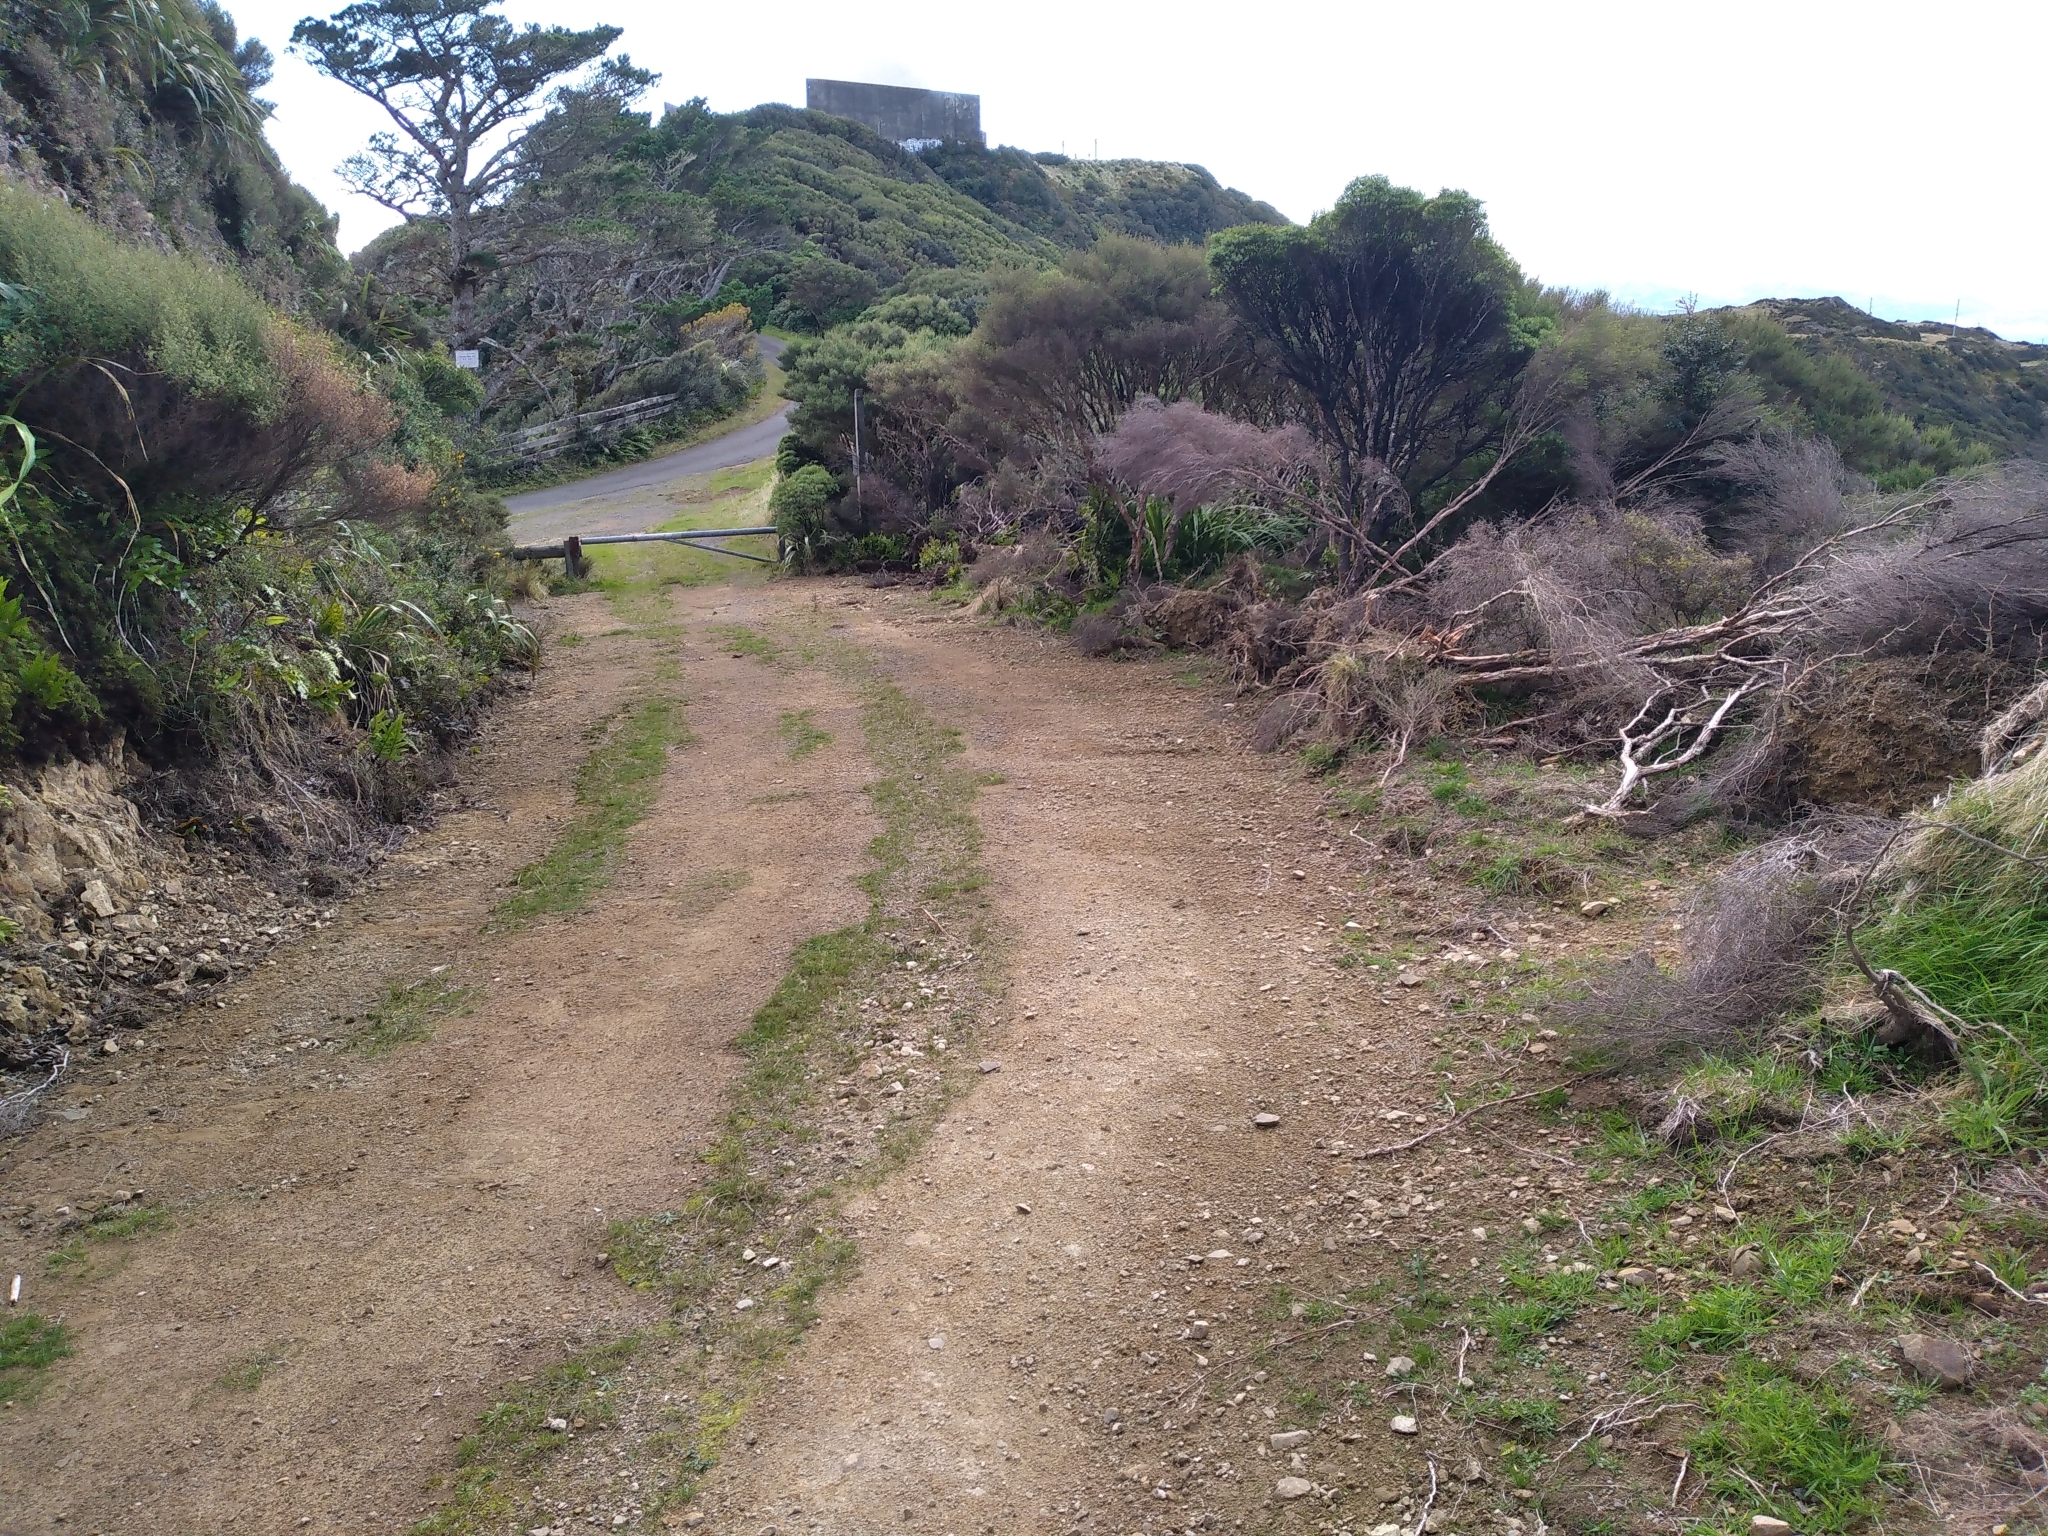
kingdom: Plantae
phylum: Tracheophyta
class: Magnoliopsida
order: Apiales
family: Apiaceae
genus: Aciphylla
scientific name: Aciphylla squarrosa
